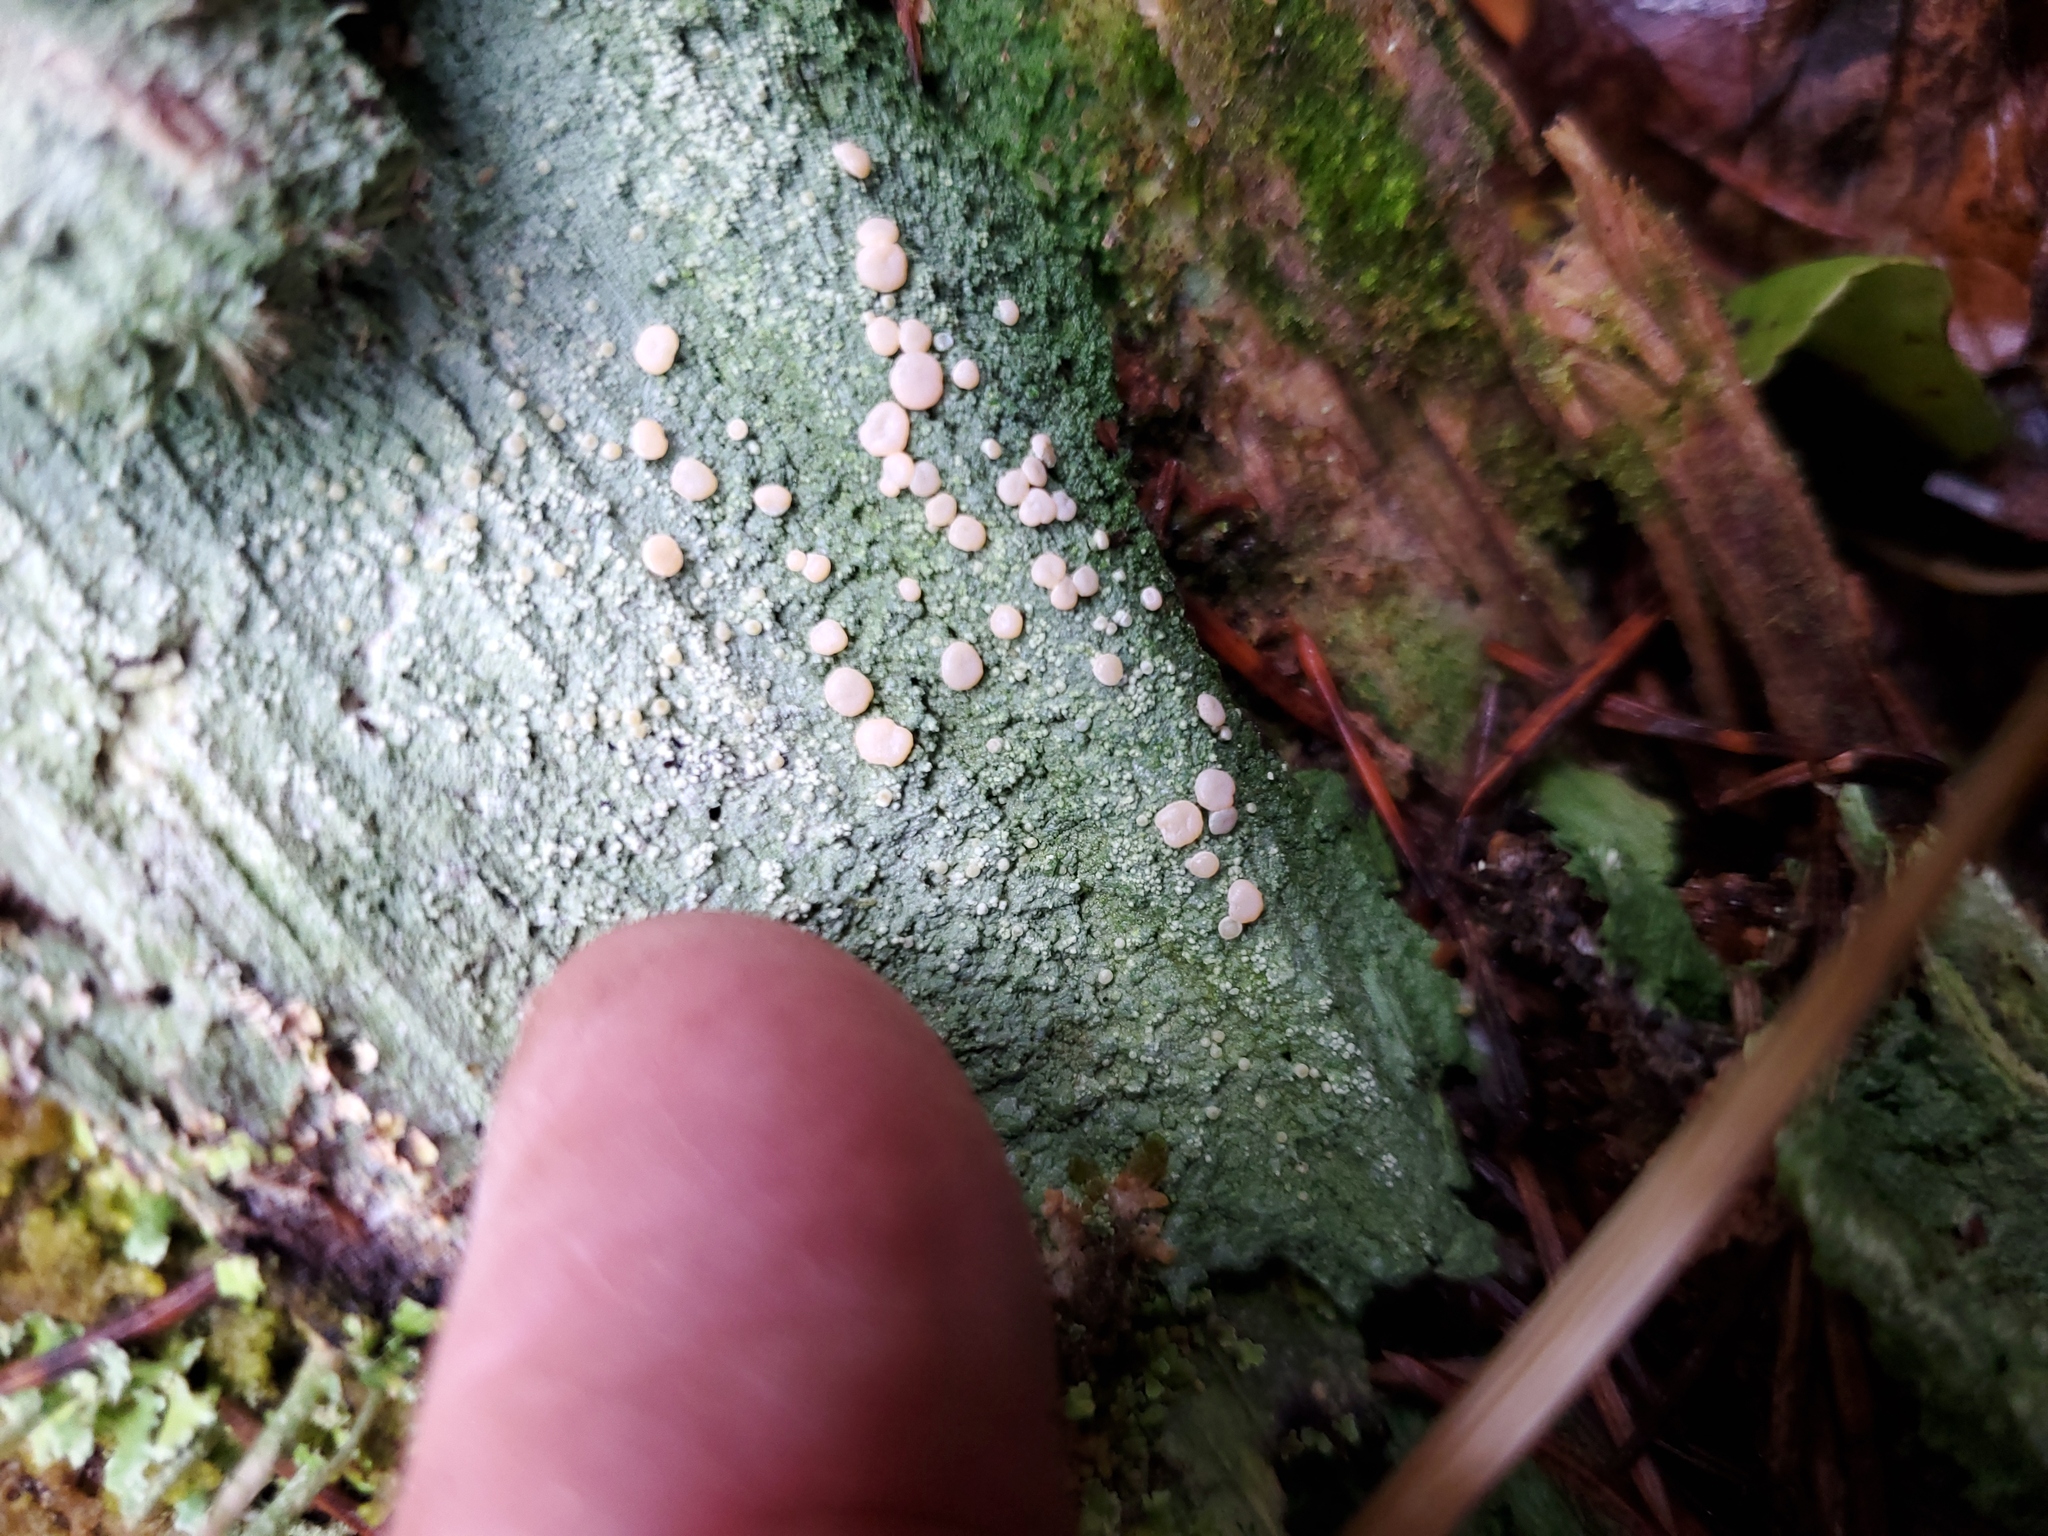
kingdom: Fungi
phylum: Ascomycota
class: Lecanoromycetes
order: Pertusariales
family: Icmadophilaceae
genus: Icmadophila
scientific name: Icmadophila ericetorum
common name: Candy lichen
